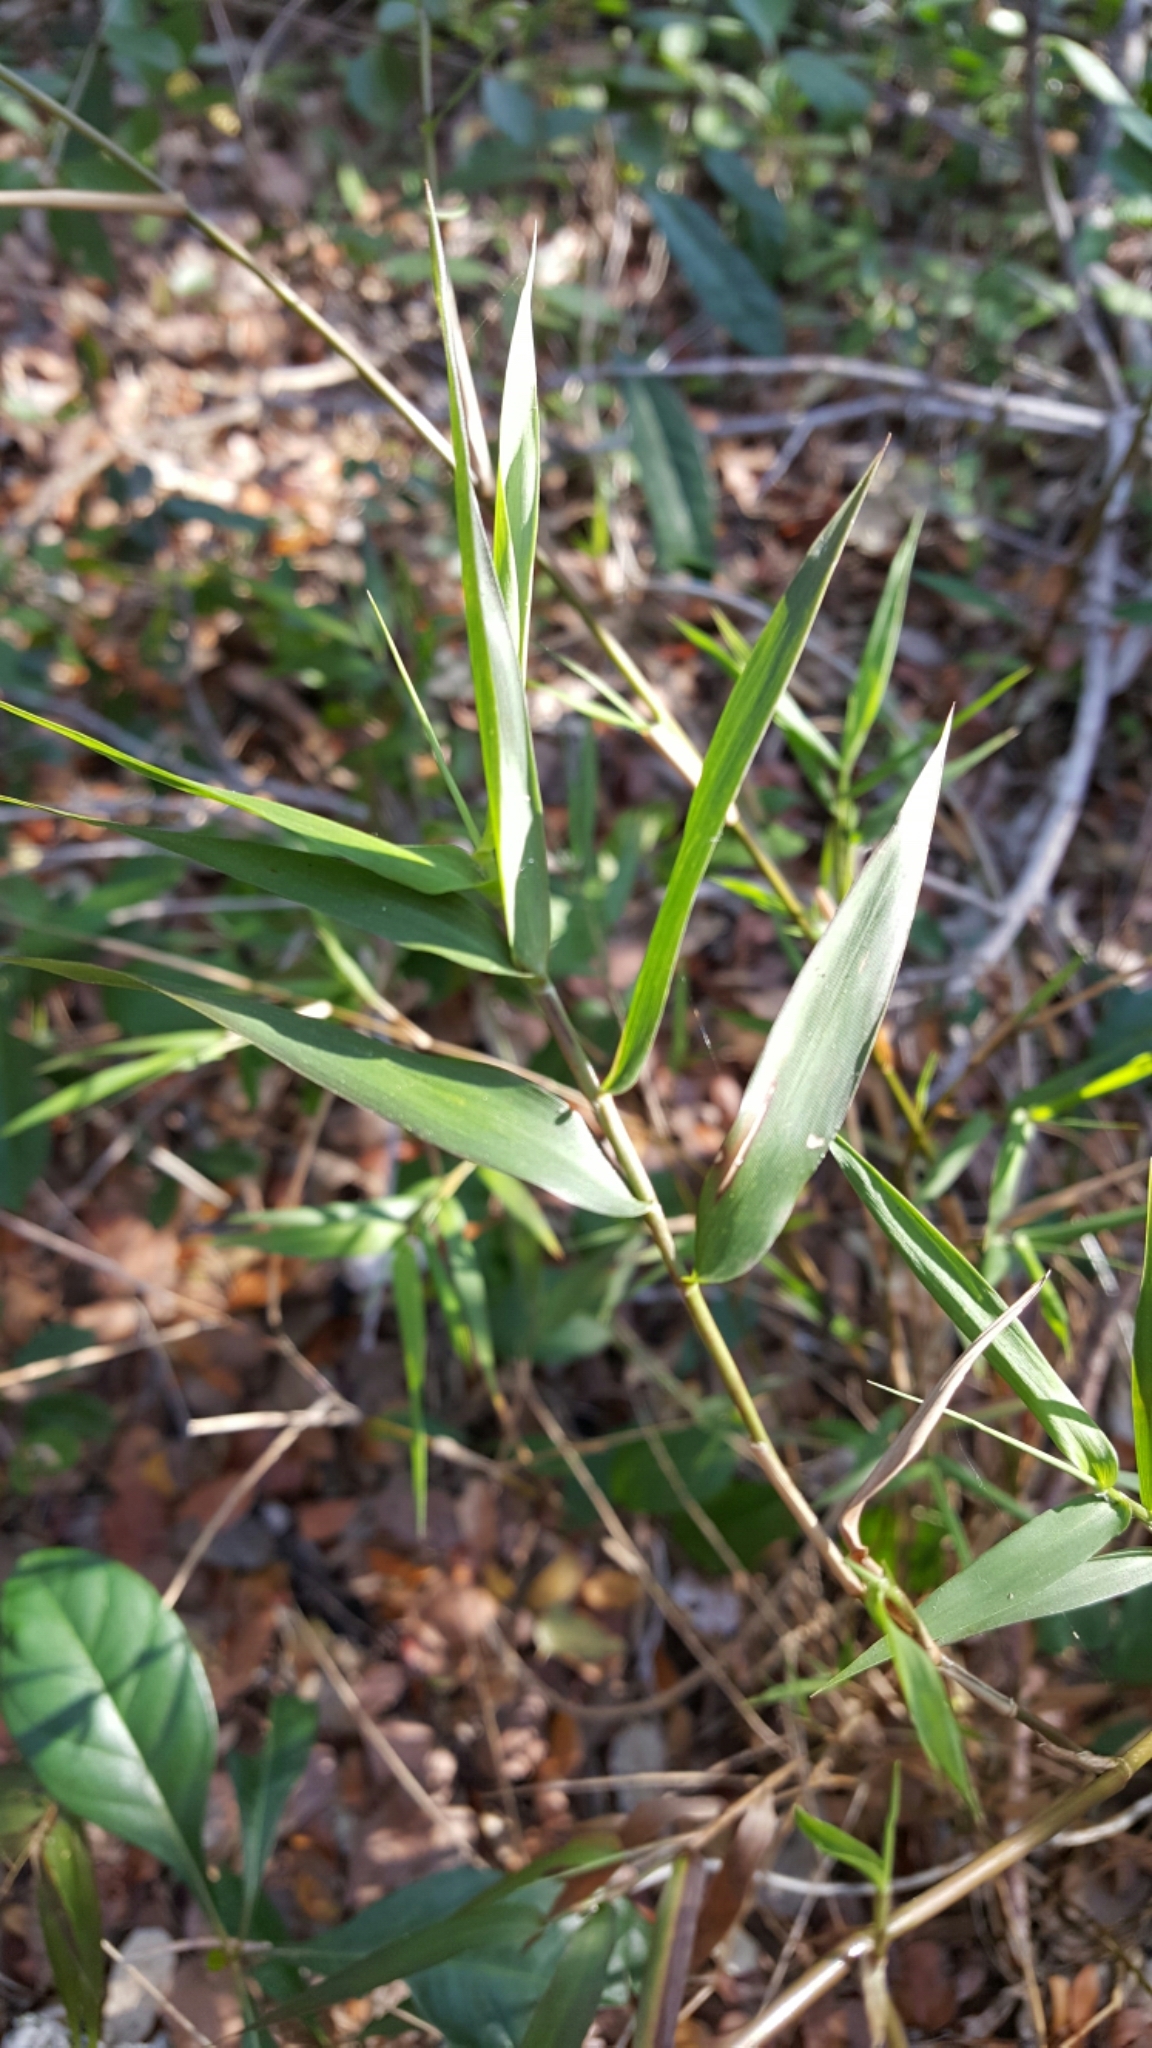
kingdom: Plantae
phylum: Tracheophyta
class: Liliopsida
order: Poales
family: Poaceae
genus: Lasiacis
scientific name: Lasiacis divaricata
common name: Smallcane
